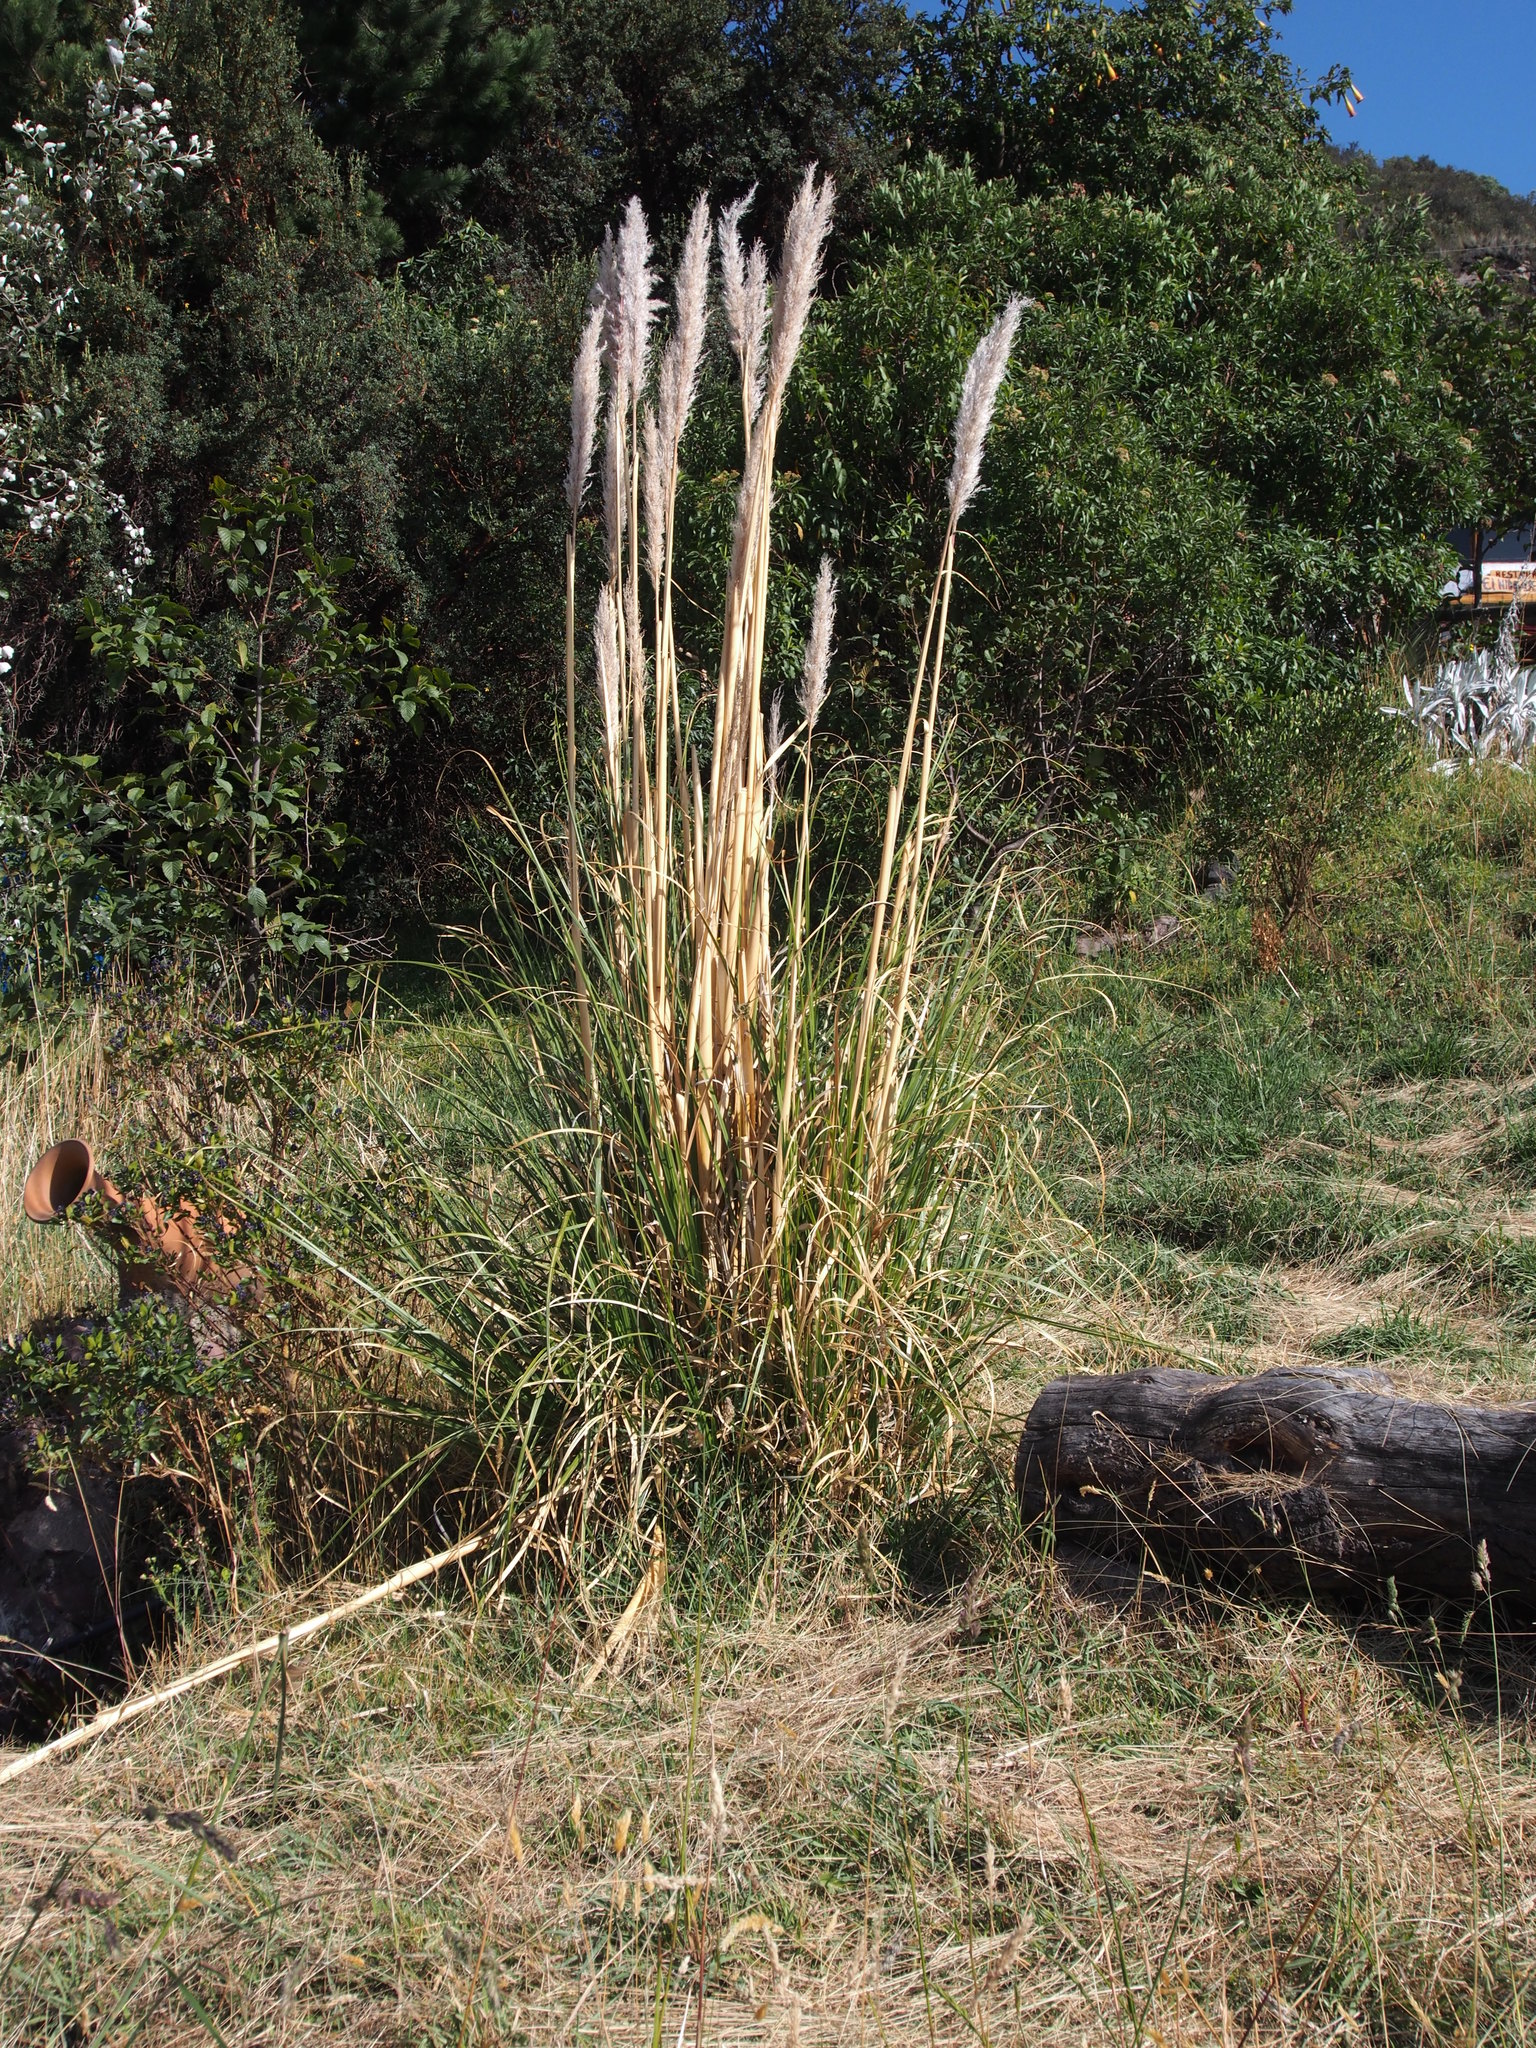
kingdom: Plantae
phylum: Tracheophyta
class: Liliopsida
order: Poales
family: Poaceae
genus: Cortaderia
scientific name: Cortaderia nitida
